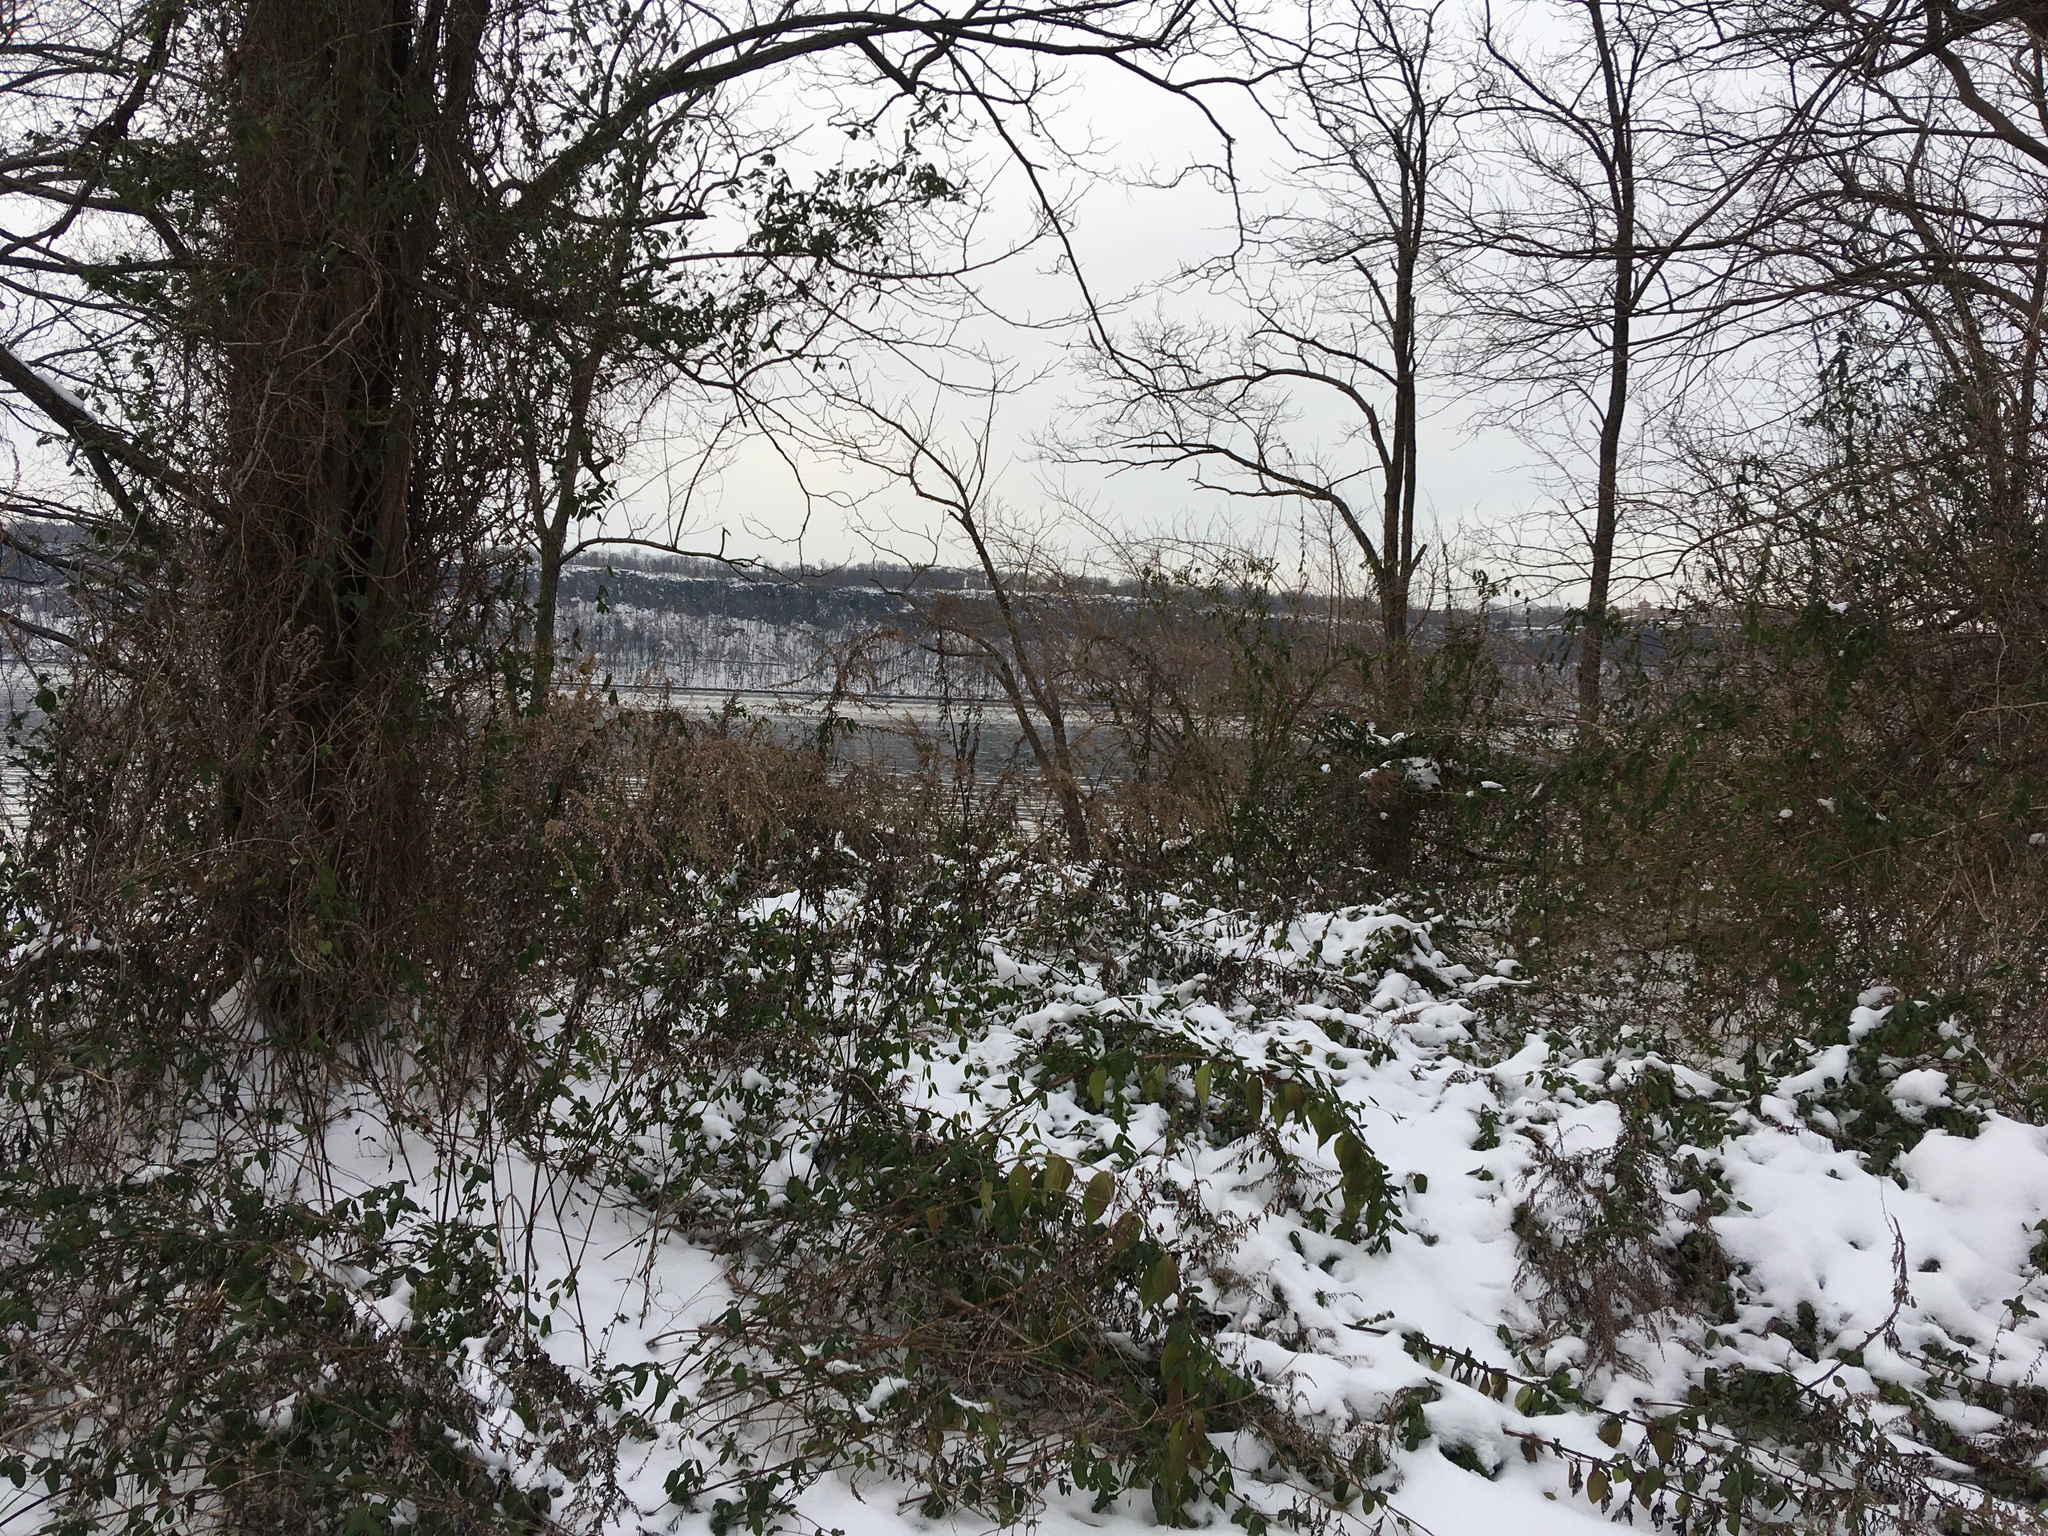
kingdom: Plantae
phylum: Tracheophyta
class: Magnoliopsida
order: Asterales
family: Asteraceae
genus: Artemisia
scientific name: Artemisia vulgaris
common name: Mugwort
